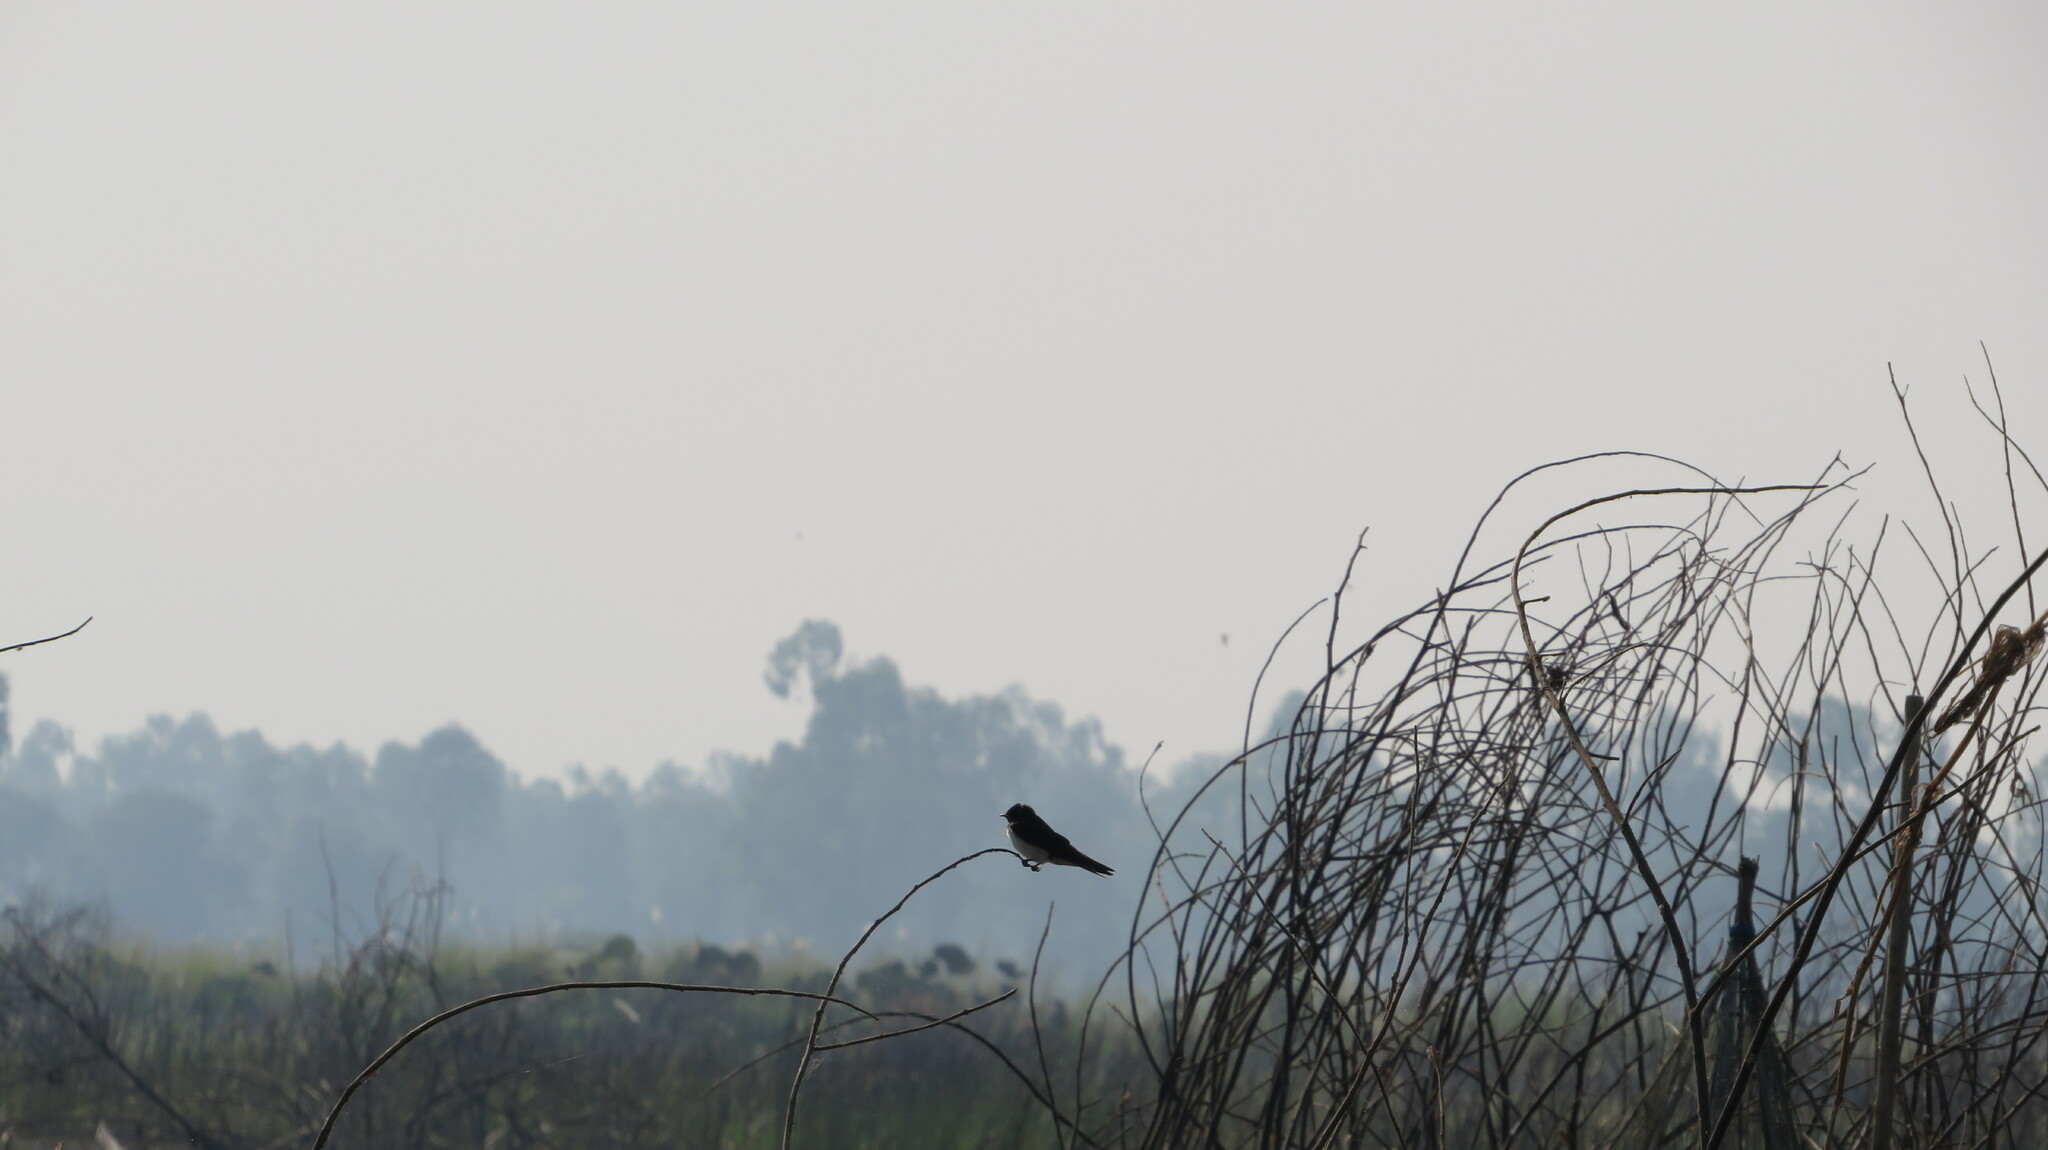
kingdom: Animalia
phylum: Chordata
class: Aves
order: Passeriformes
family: Hirundinidae
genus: Hirundo
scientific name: Hirundo rustica
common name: Barn swallow
